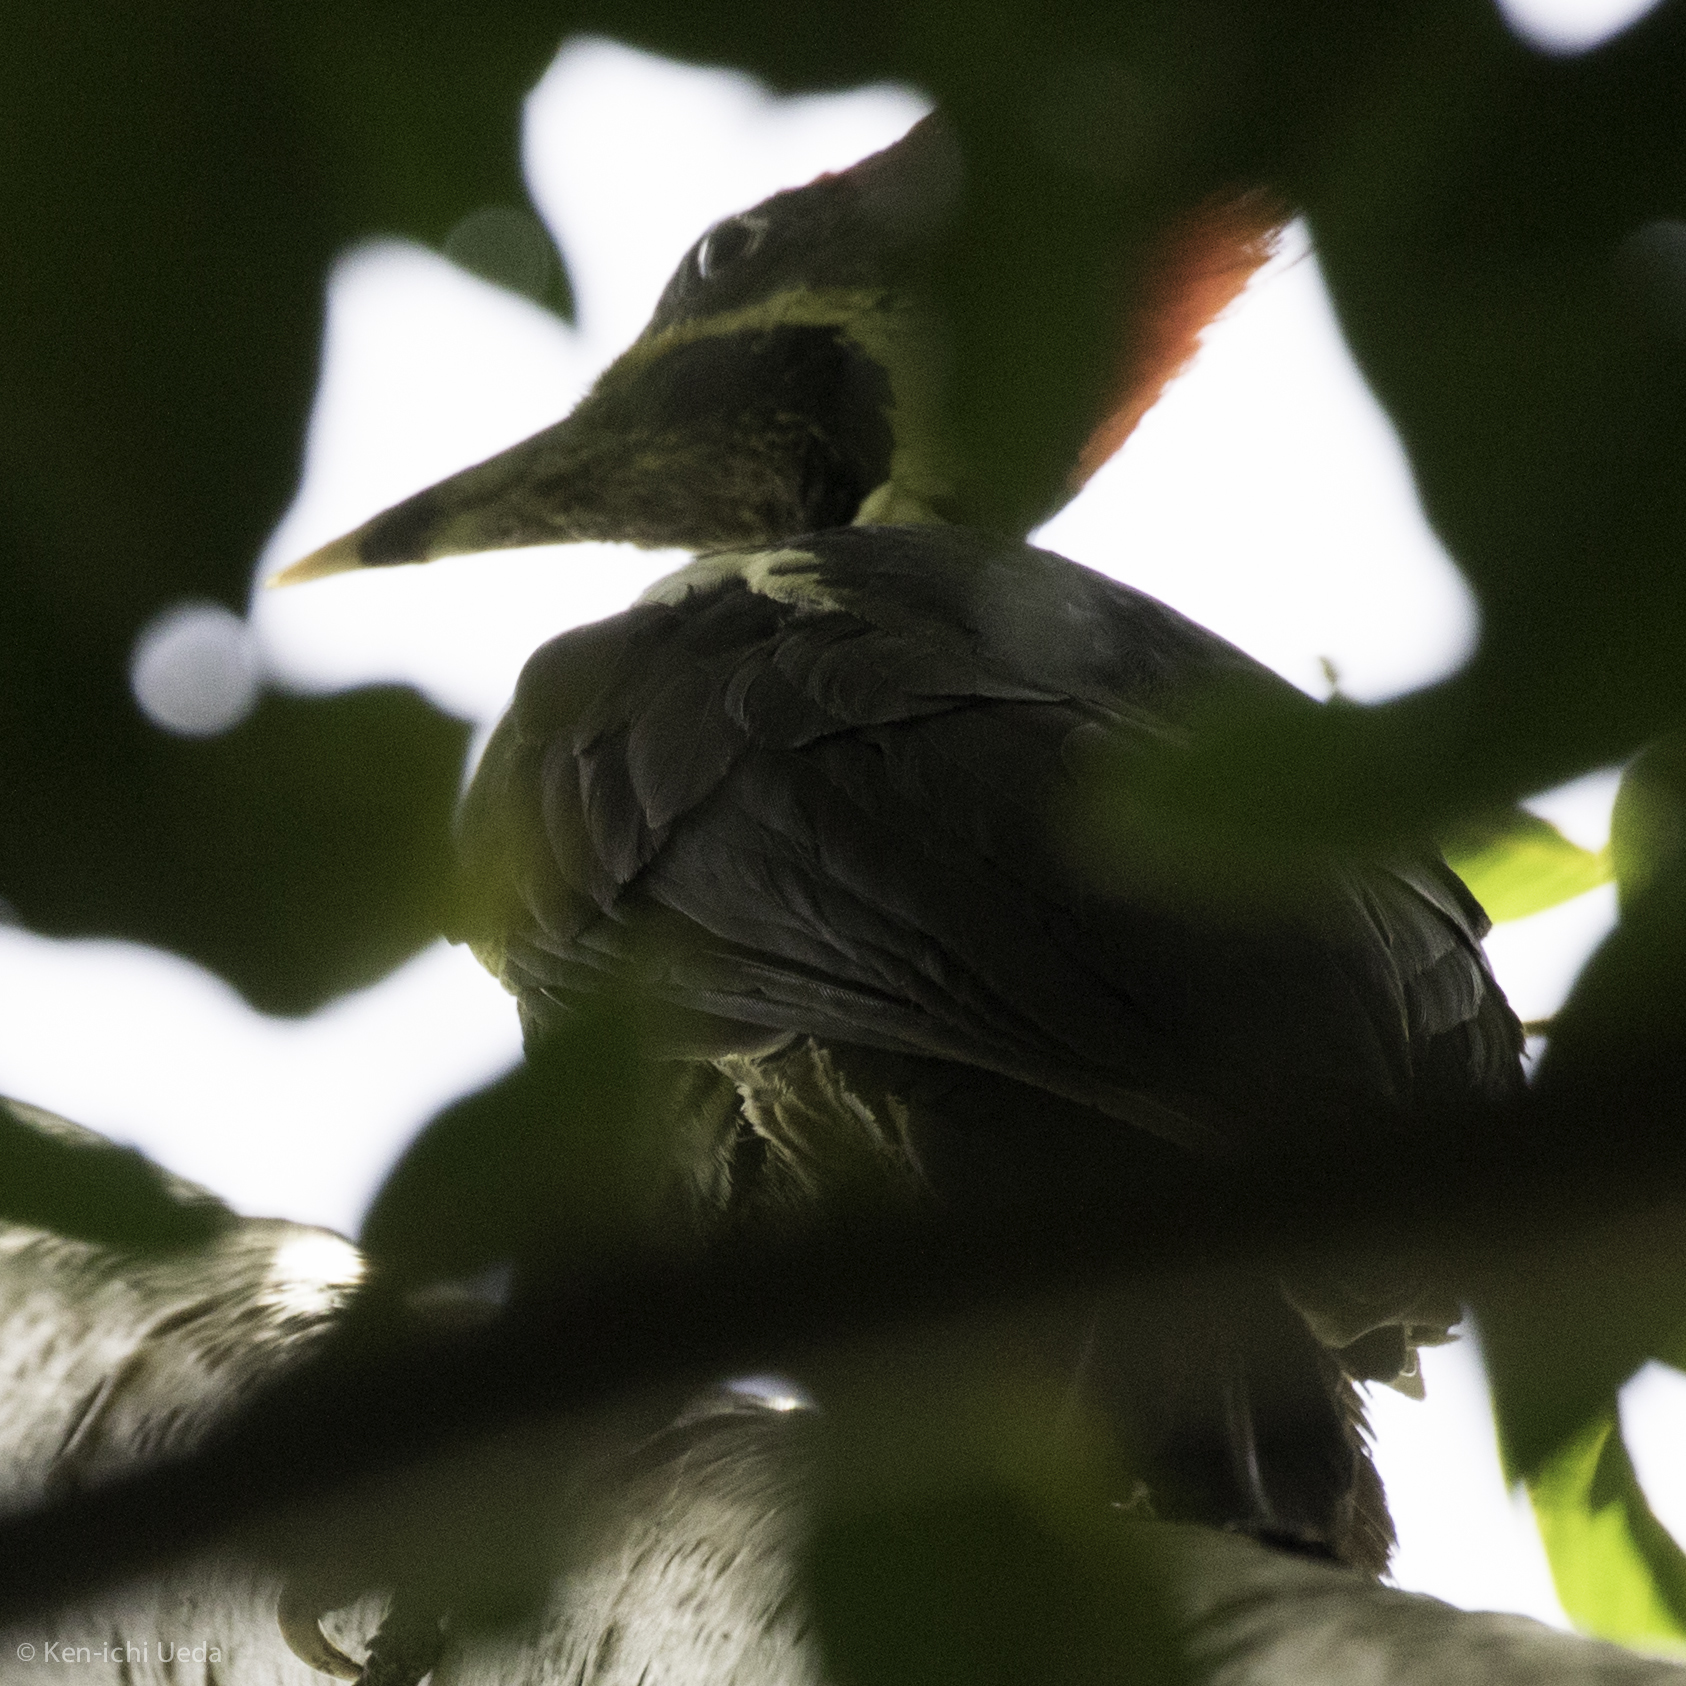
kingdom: Animalia
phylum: Chordata
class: Aves
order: Piciformes
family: Picidae
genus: Dryocopus
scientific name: Dryocopus lineatus
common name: Lineated woodpecker
